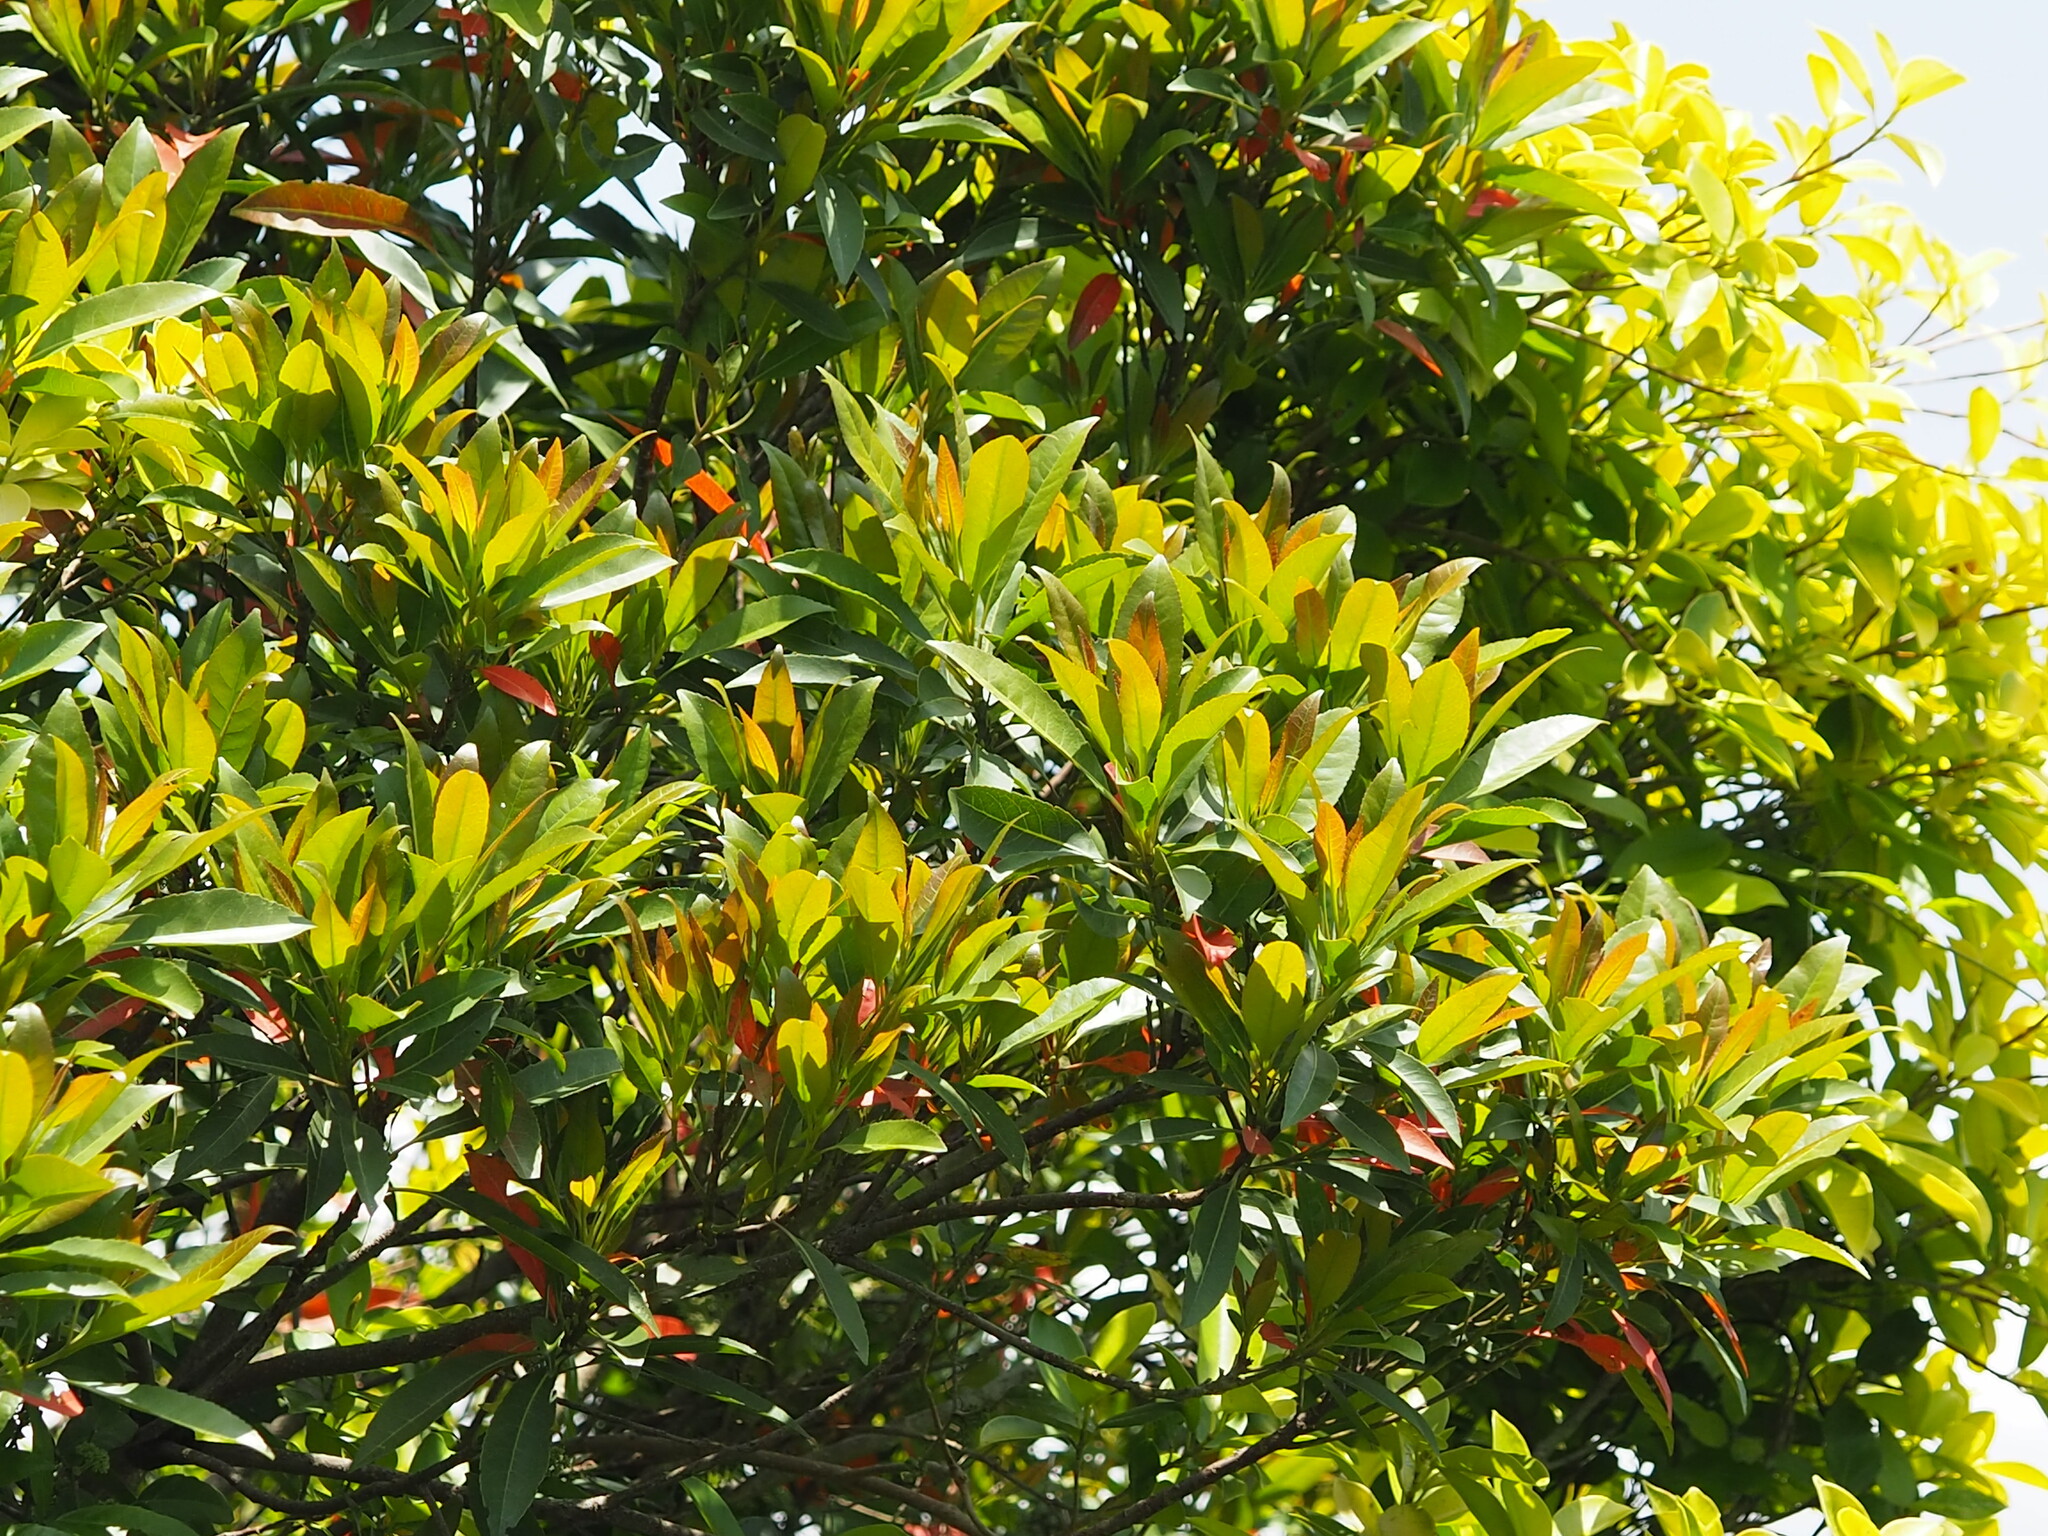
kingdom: Plantae
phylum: Tracheophyta
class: Magnoliopsida
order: Oxalidales
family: Elaeocarpaceae
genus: Elaeocarpus
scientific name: Elaeocarpus decipiens
